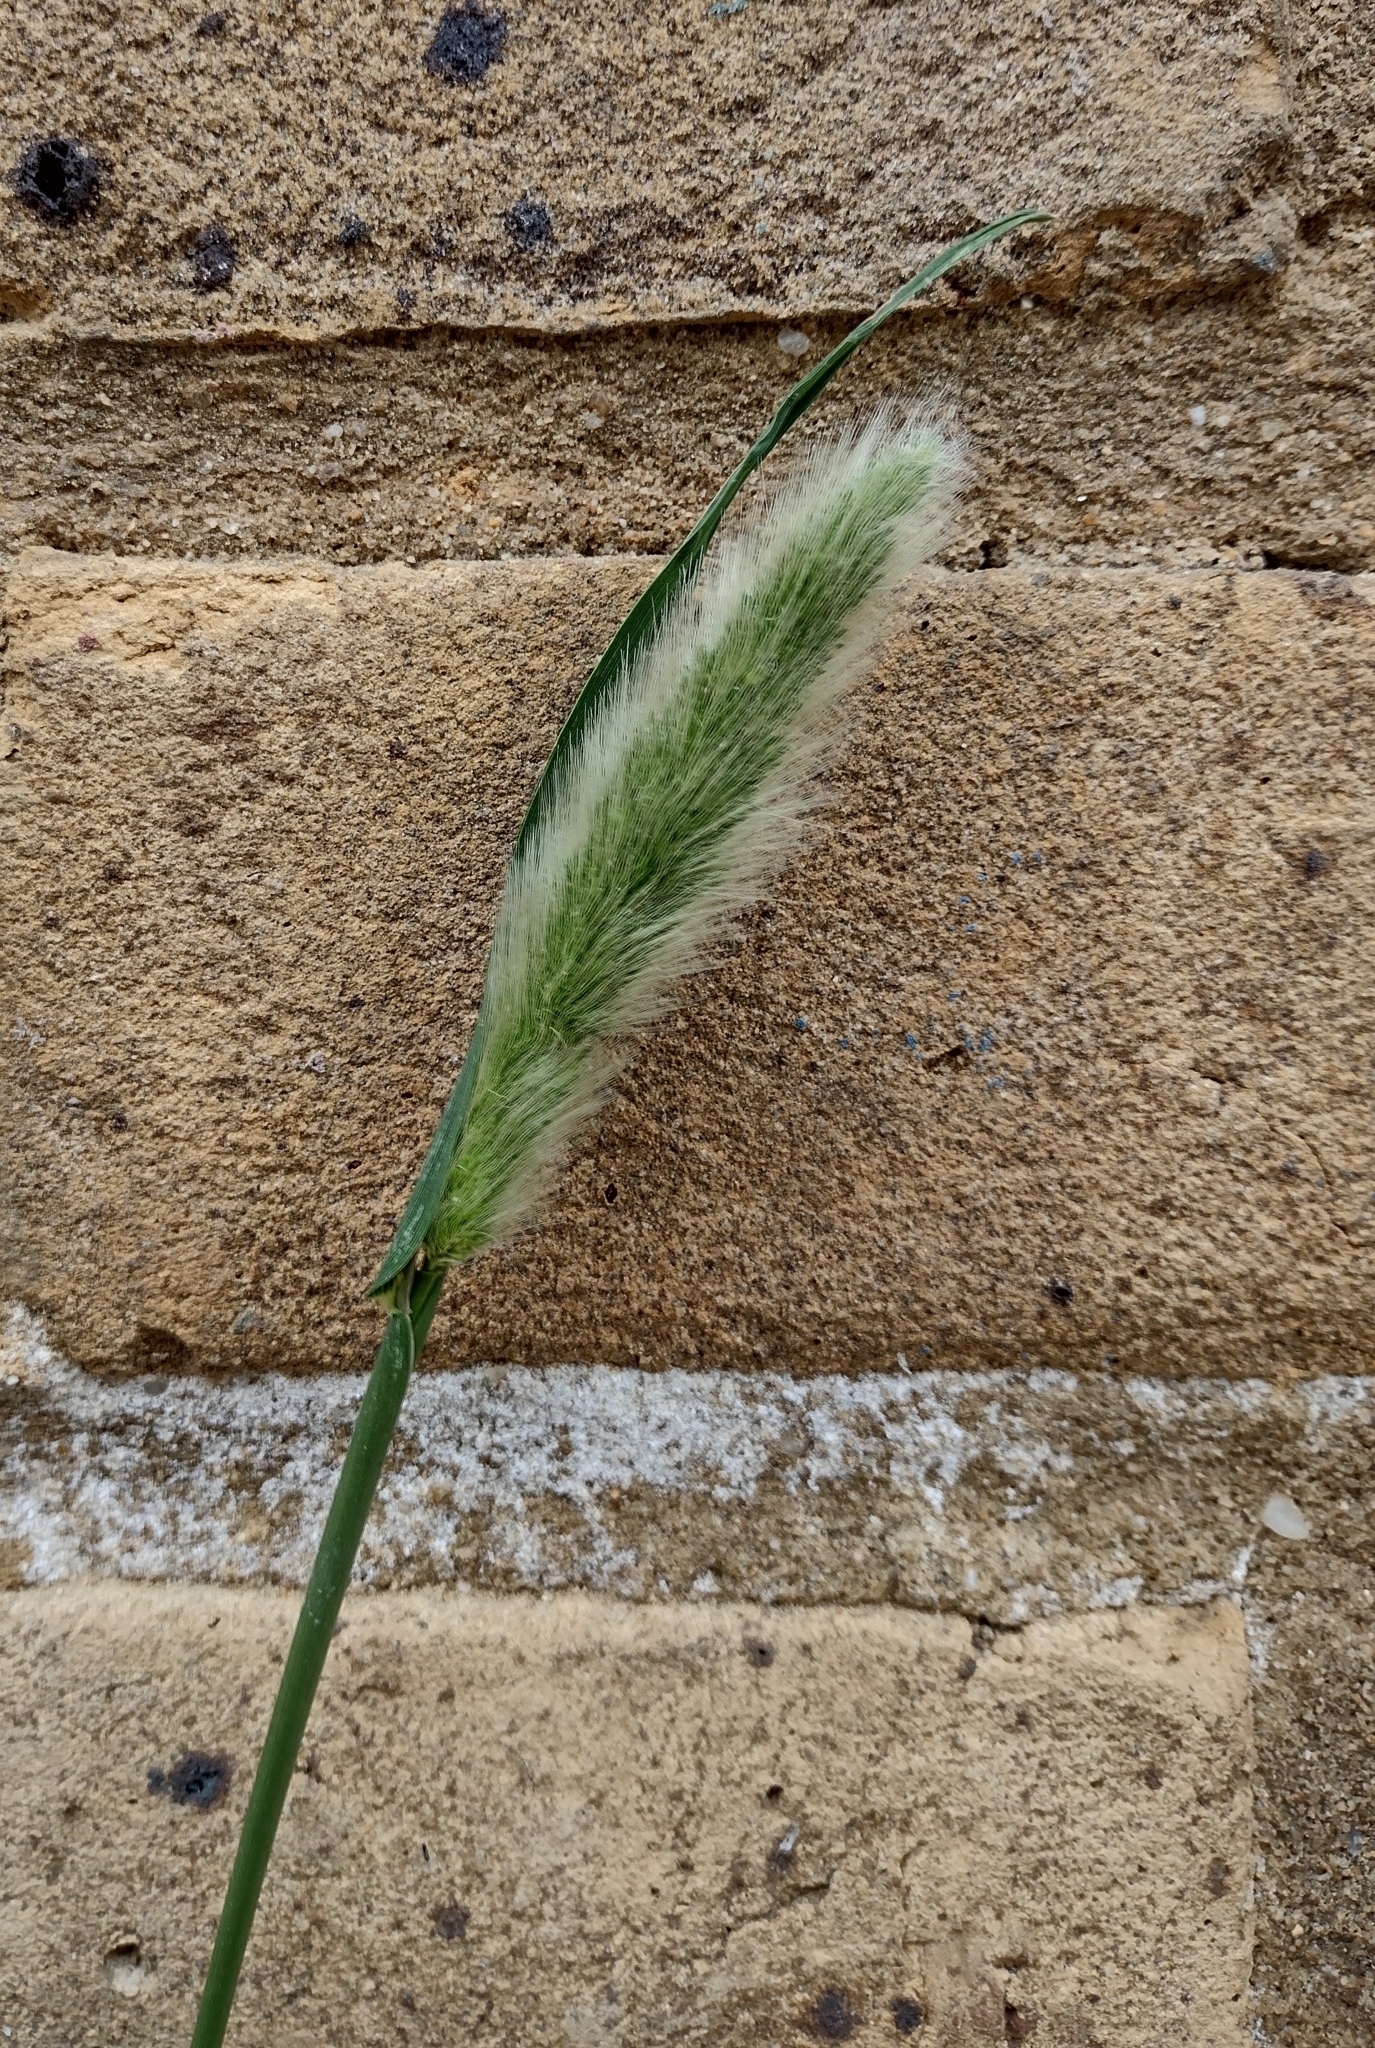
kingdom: Plantae
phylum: Tracheophyta
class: Liliopsida
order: Poales
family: Poaceae
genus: Polypogon
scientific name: Polypogon monspeliensis
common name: Annual rabbitsfoot grass
